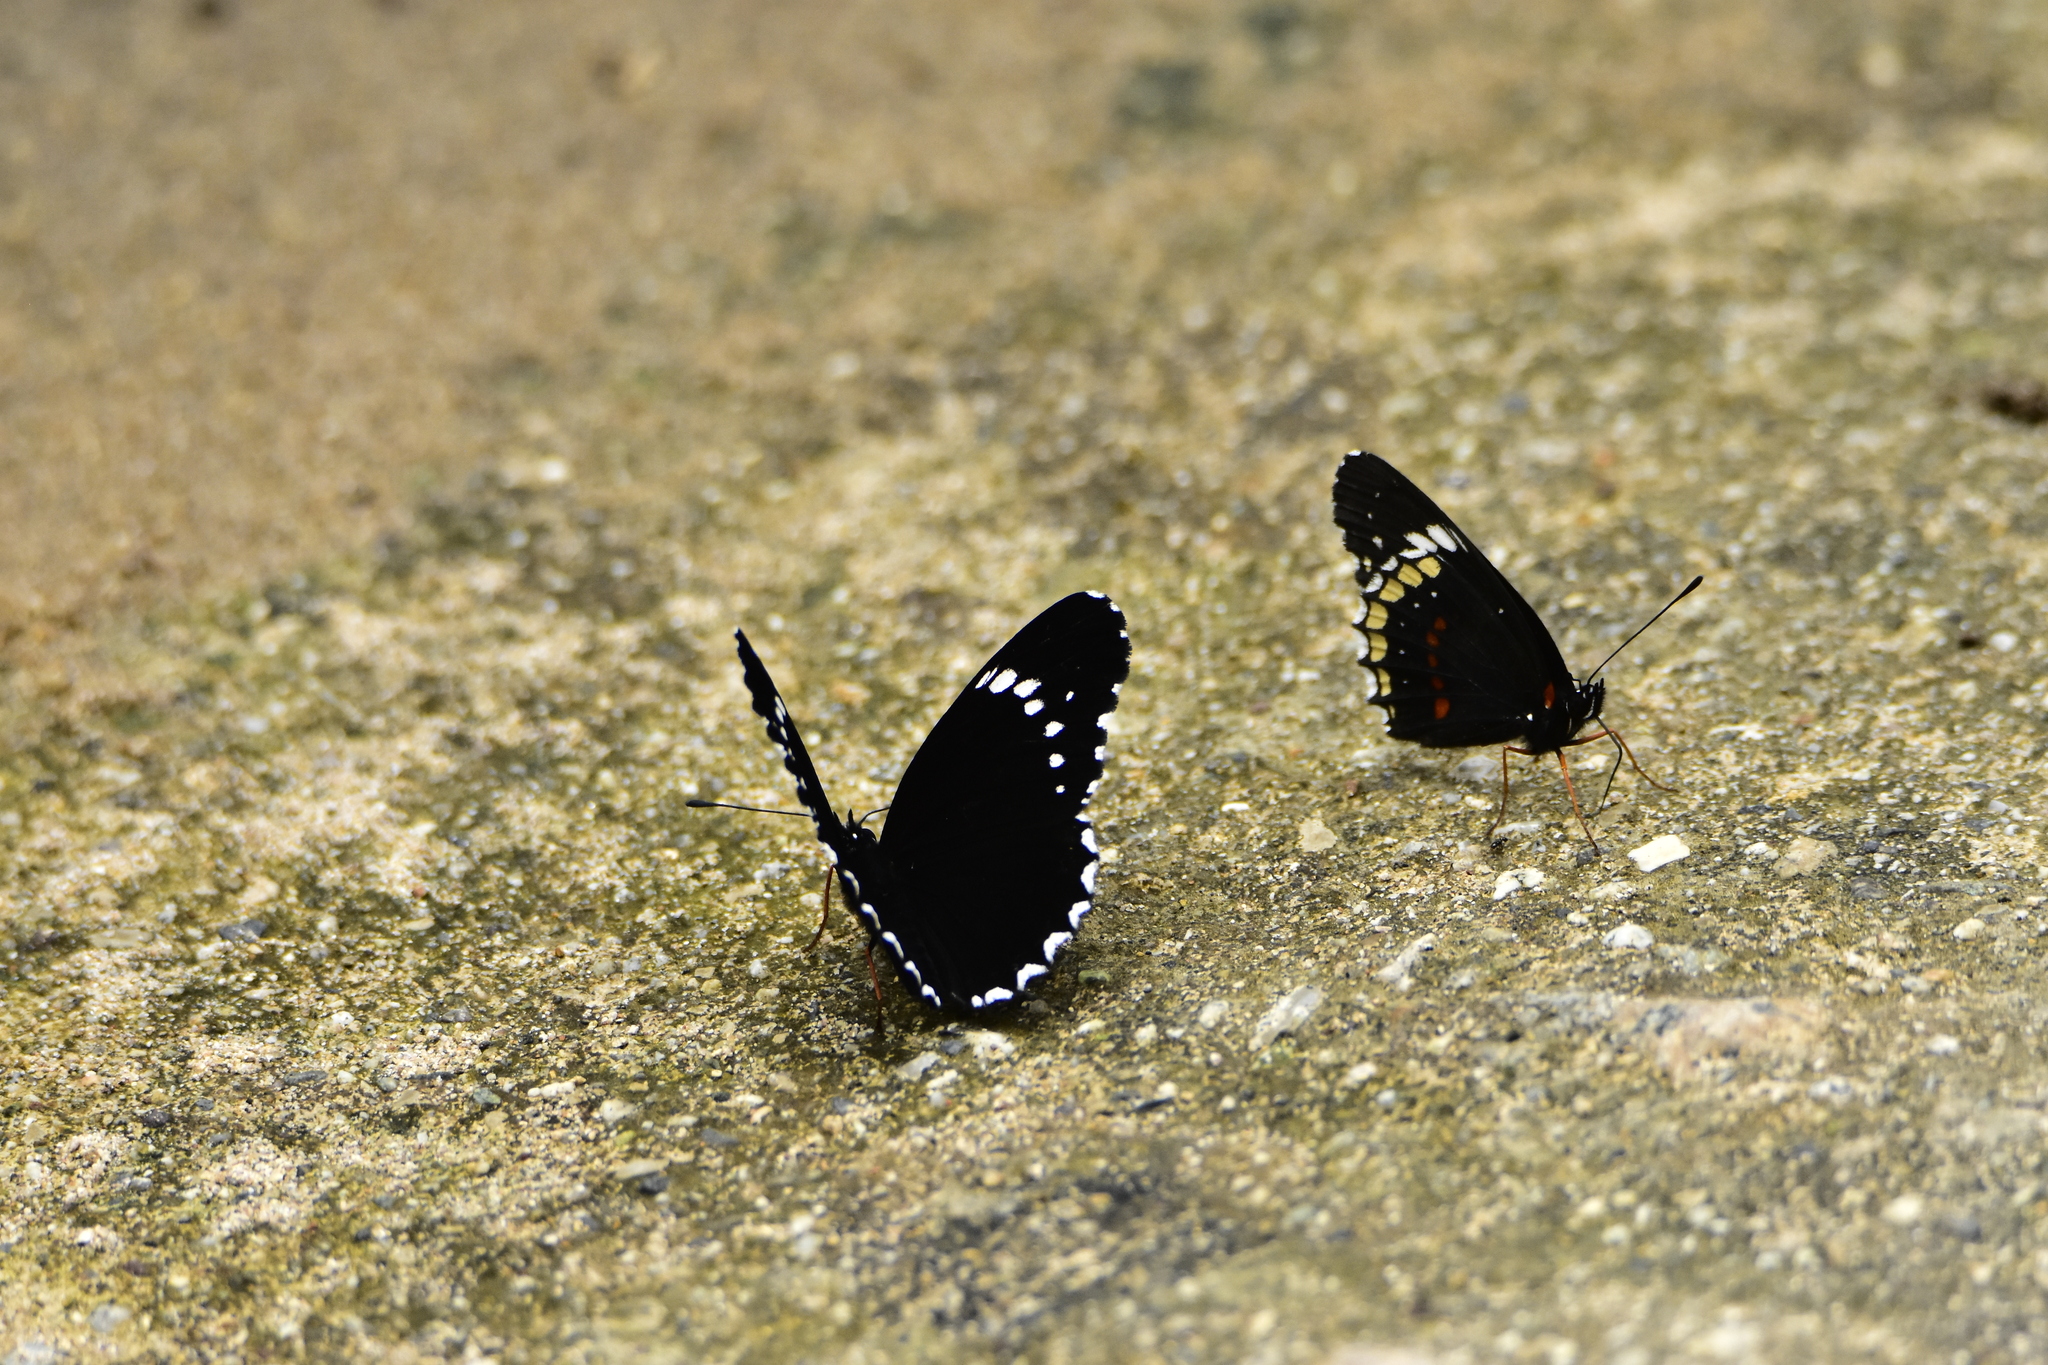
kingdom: Animalia
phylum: Arthropoda
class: Insecta
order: Lepidoptera
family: Nymphalidae
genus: Chlosyne
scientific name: Chlosyne hippodrome
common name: Simple patch
